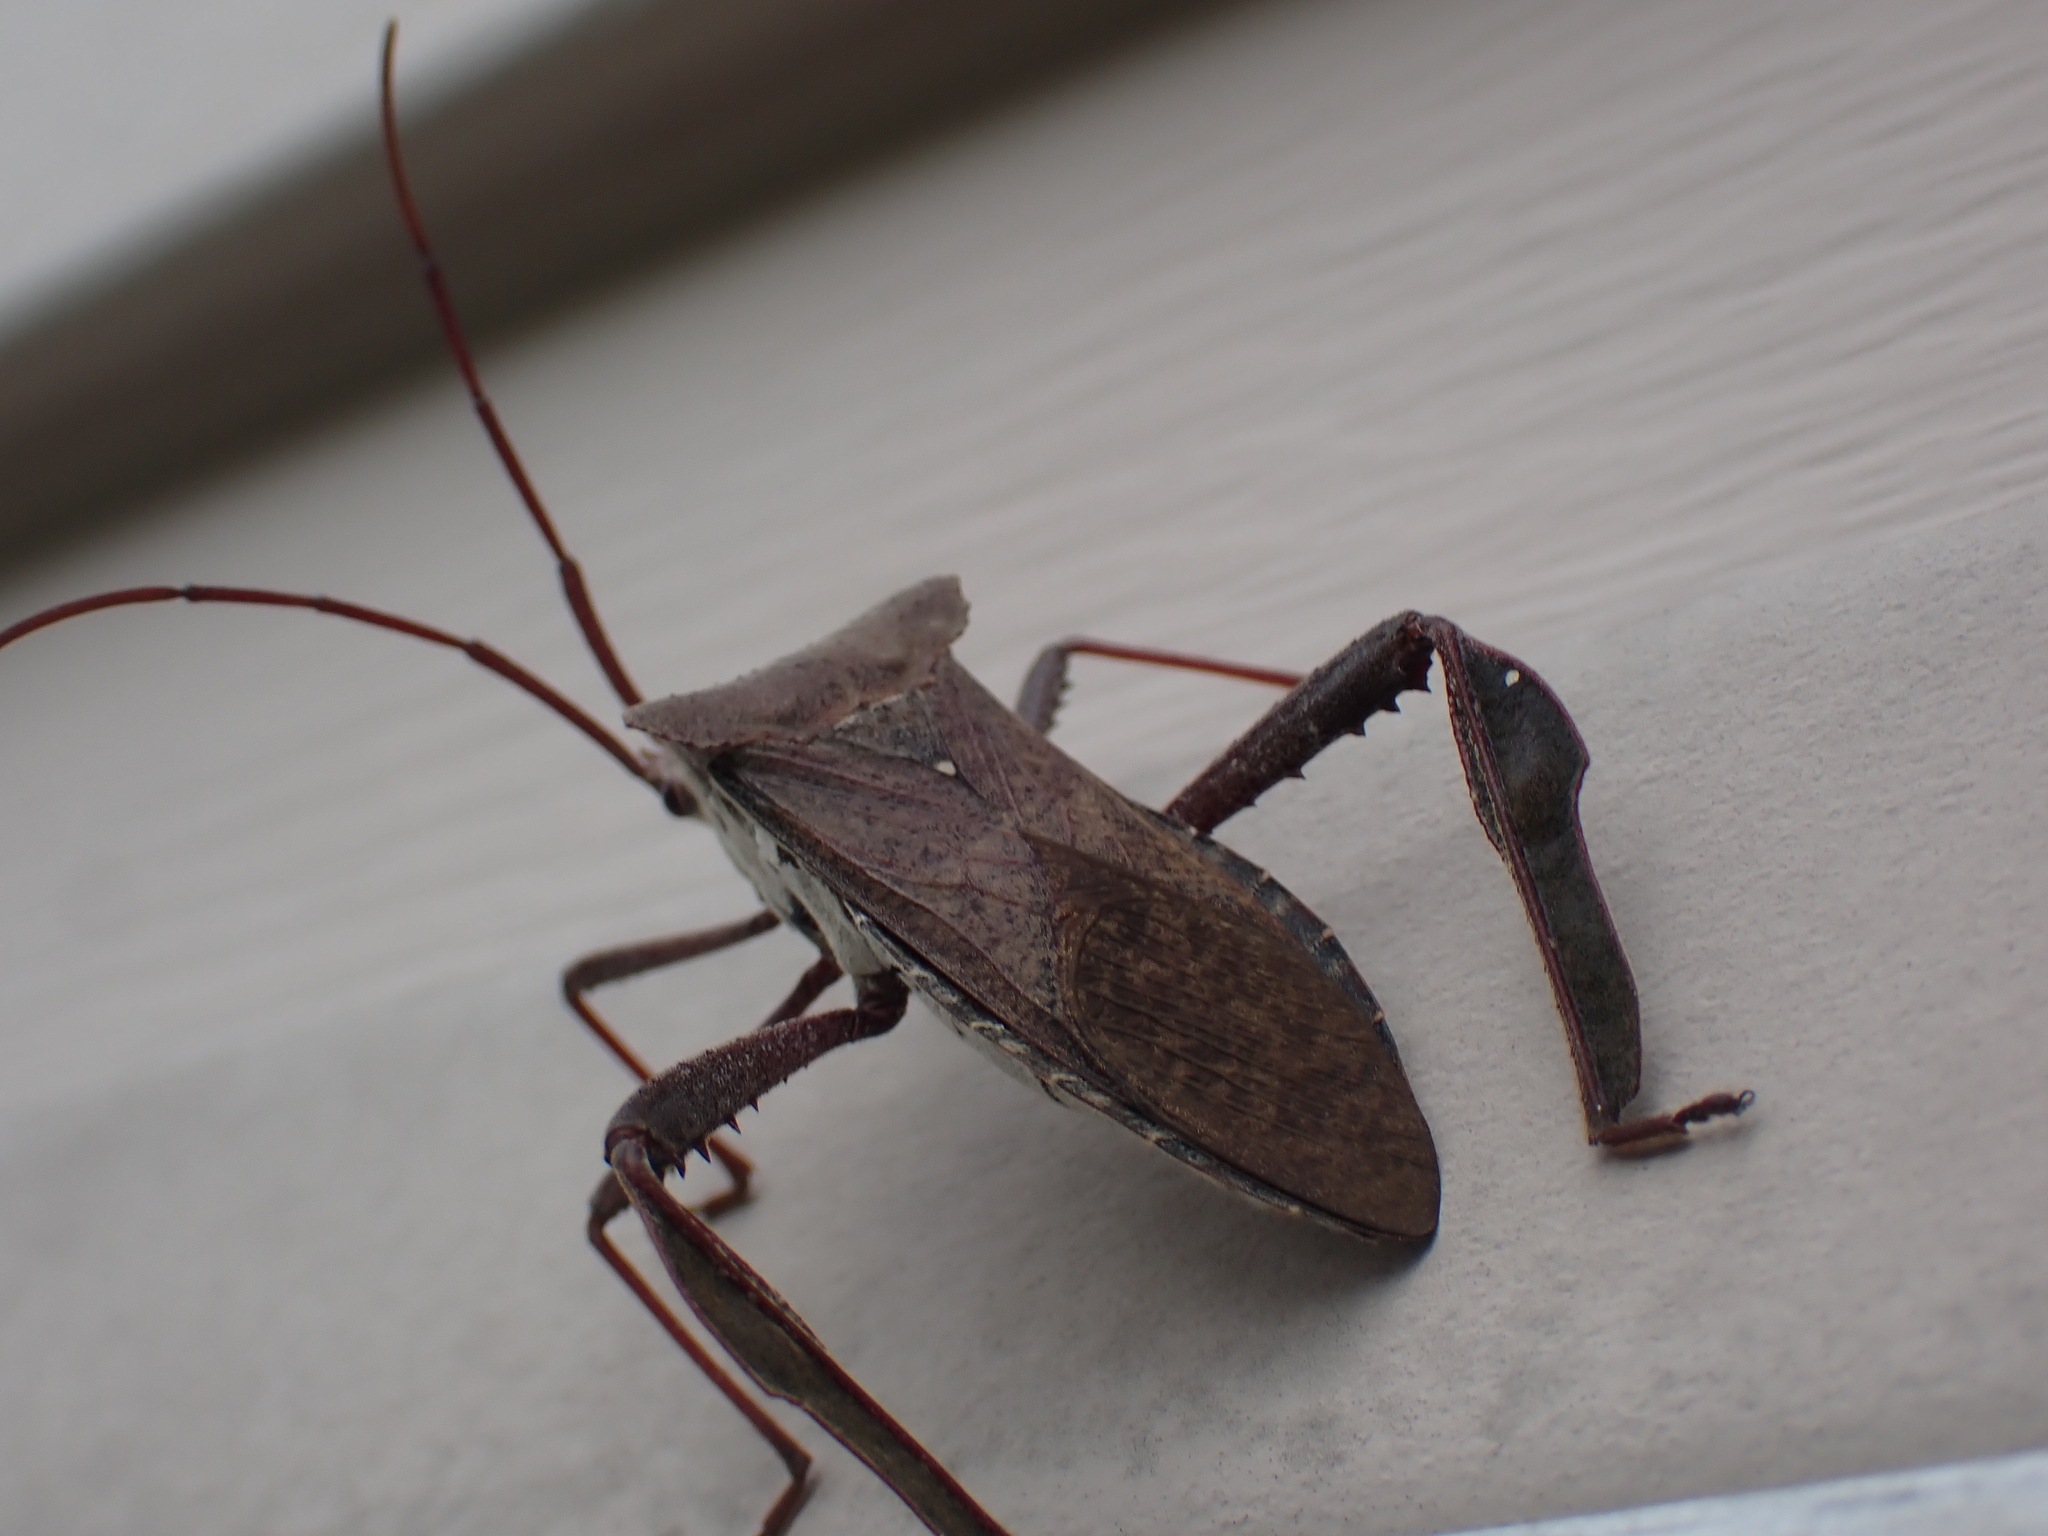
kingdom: Animalia
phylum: Arthropoda
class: Insecta
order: Hemiptera
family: Coreidae
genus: Acanthocephala
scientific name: Acanthocephala declivis
